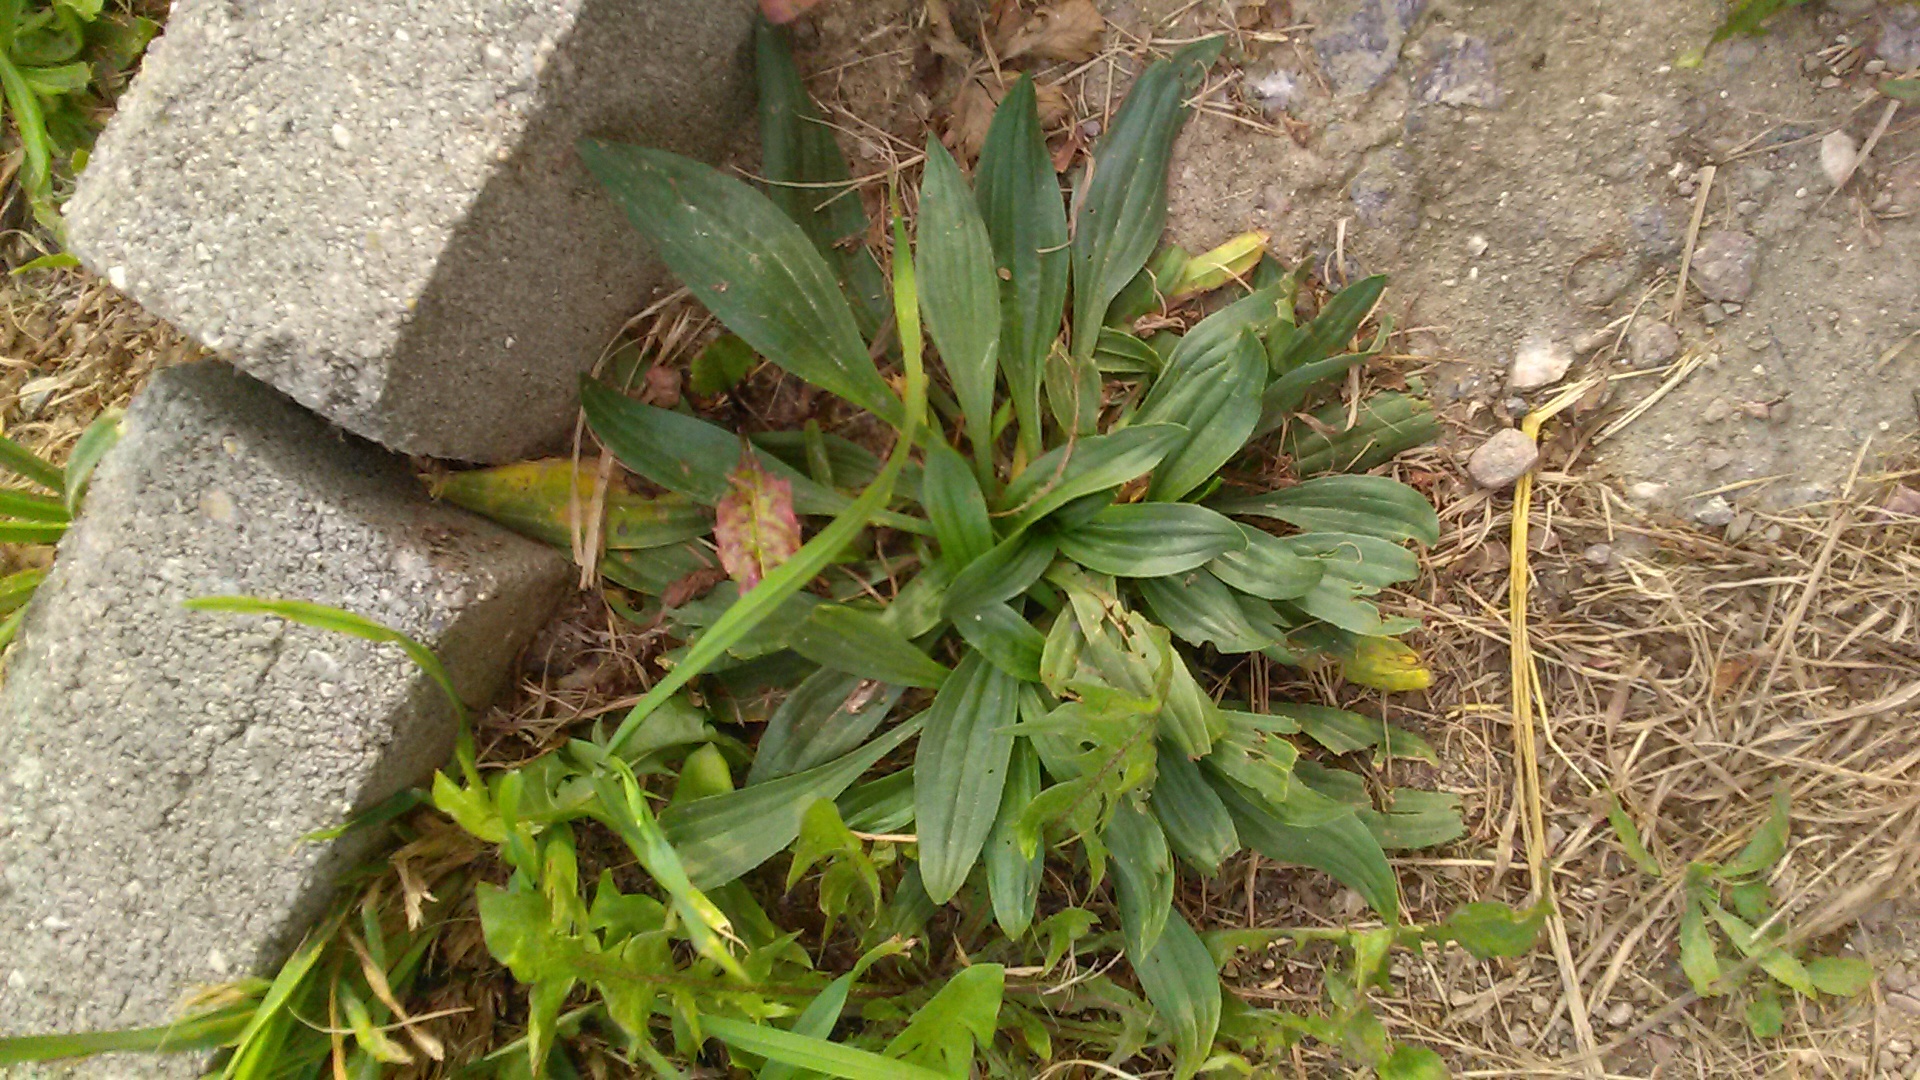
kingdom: Plantae
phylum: Tracheophyta
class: Magnoliopsida
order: Lamiales
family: Plantaginaceae
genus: Plantago
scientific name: Plantago lanceolata
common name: Ribwort plantain
